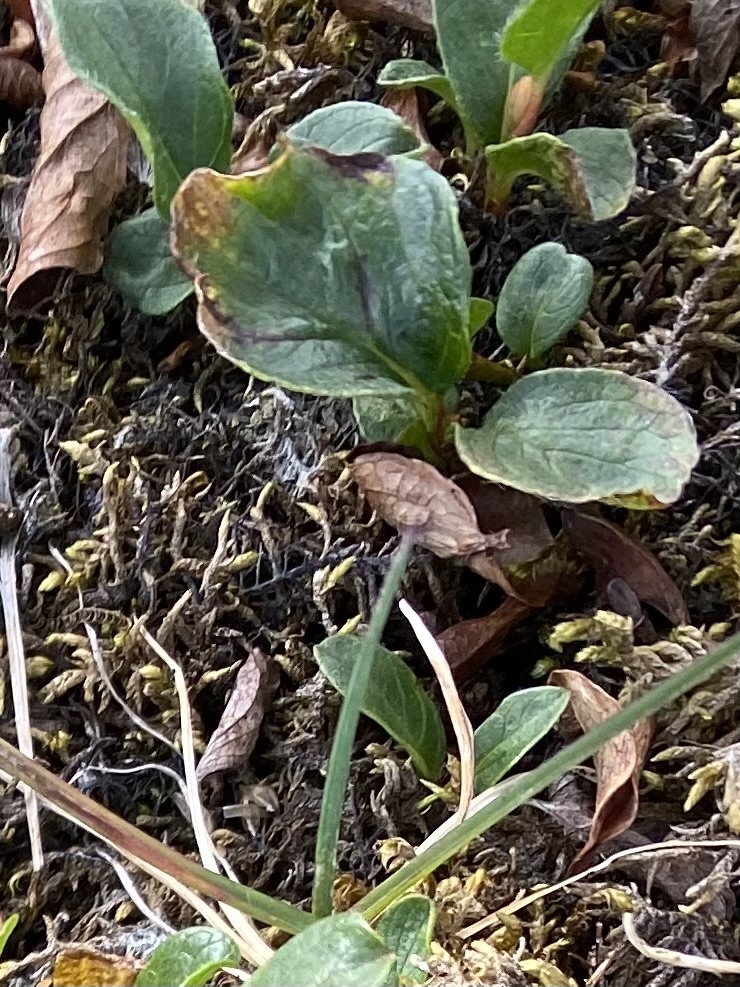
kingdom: Plantae
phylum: Tracheophyta
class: Magnoliopsida
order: Malpighiales
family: Salicaceae
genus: Salix
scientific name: Salix polaris
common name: Polar willow
